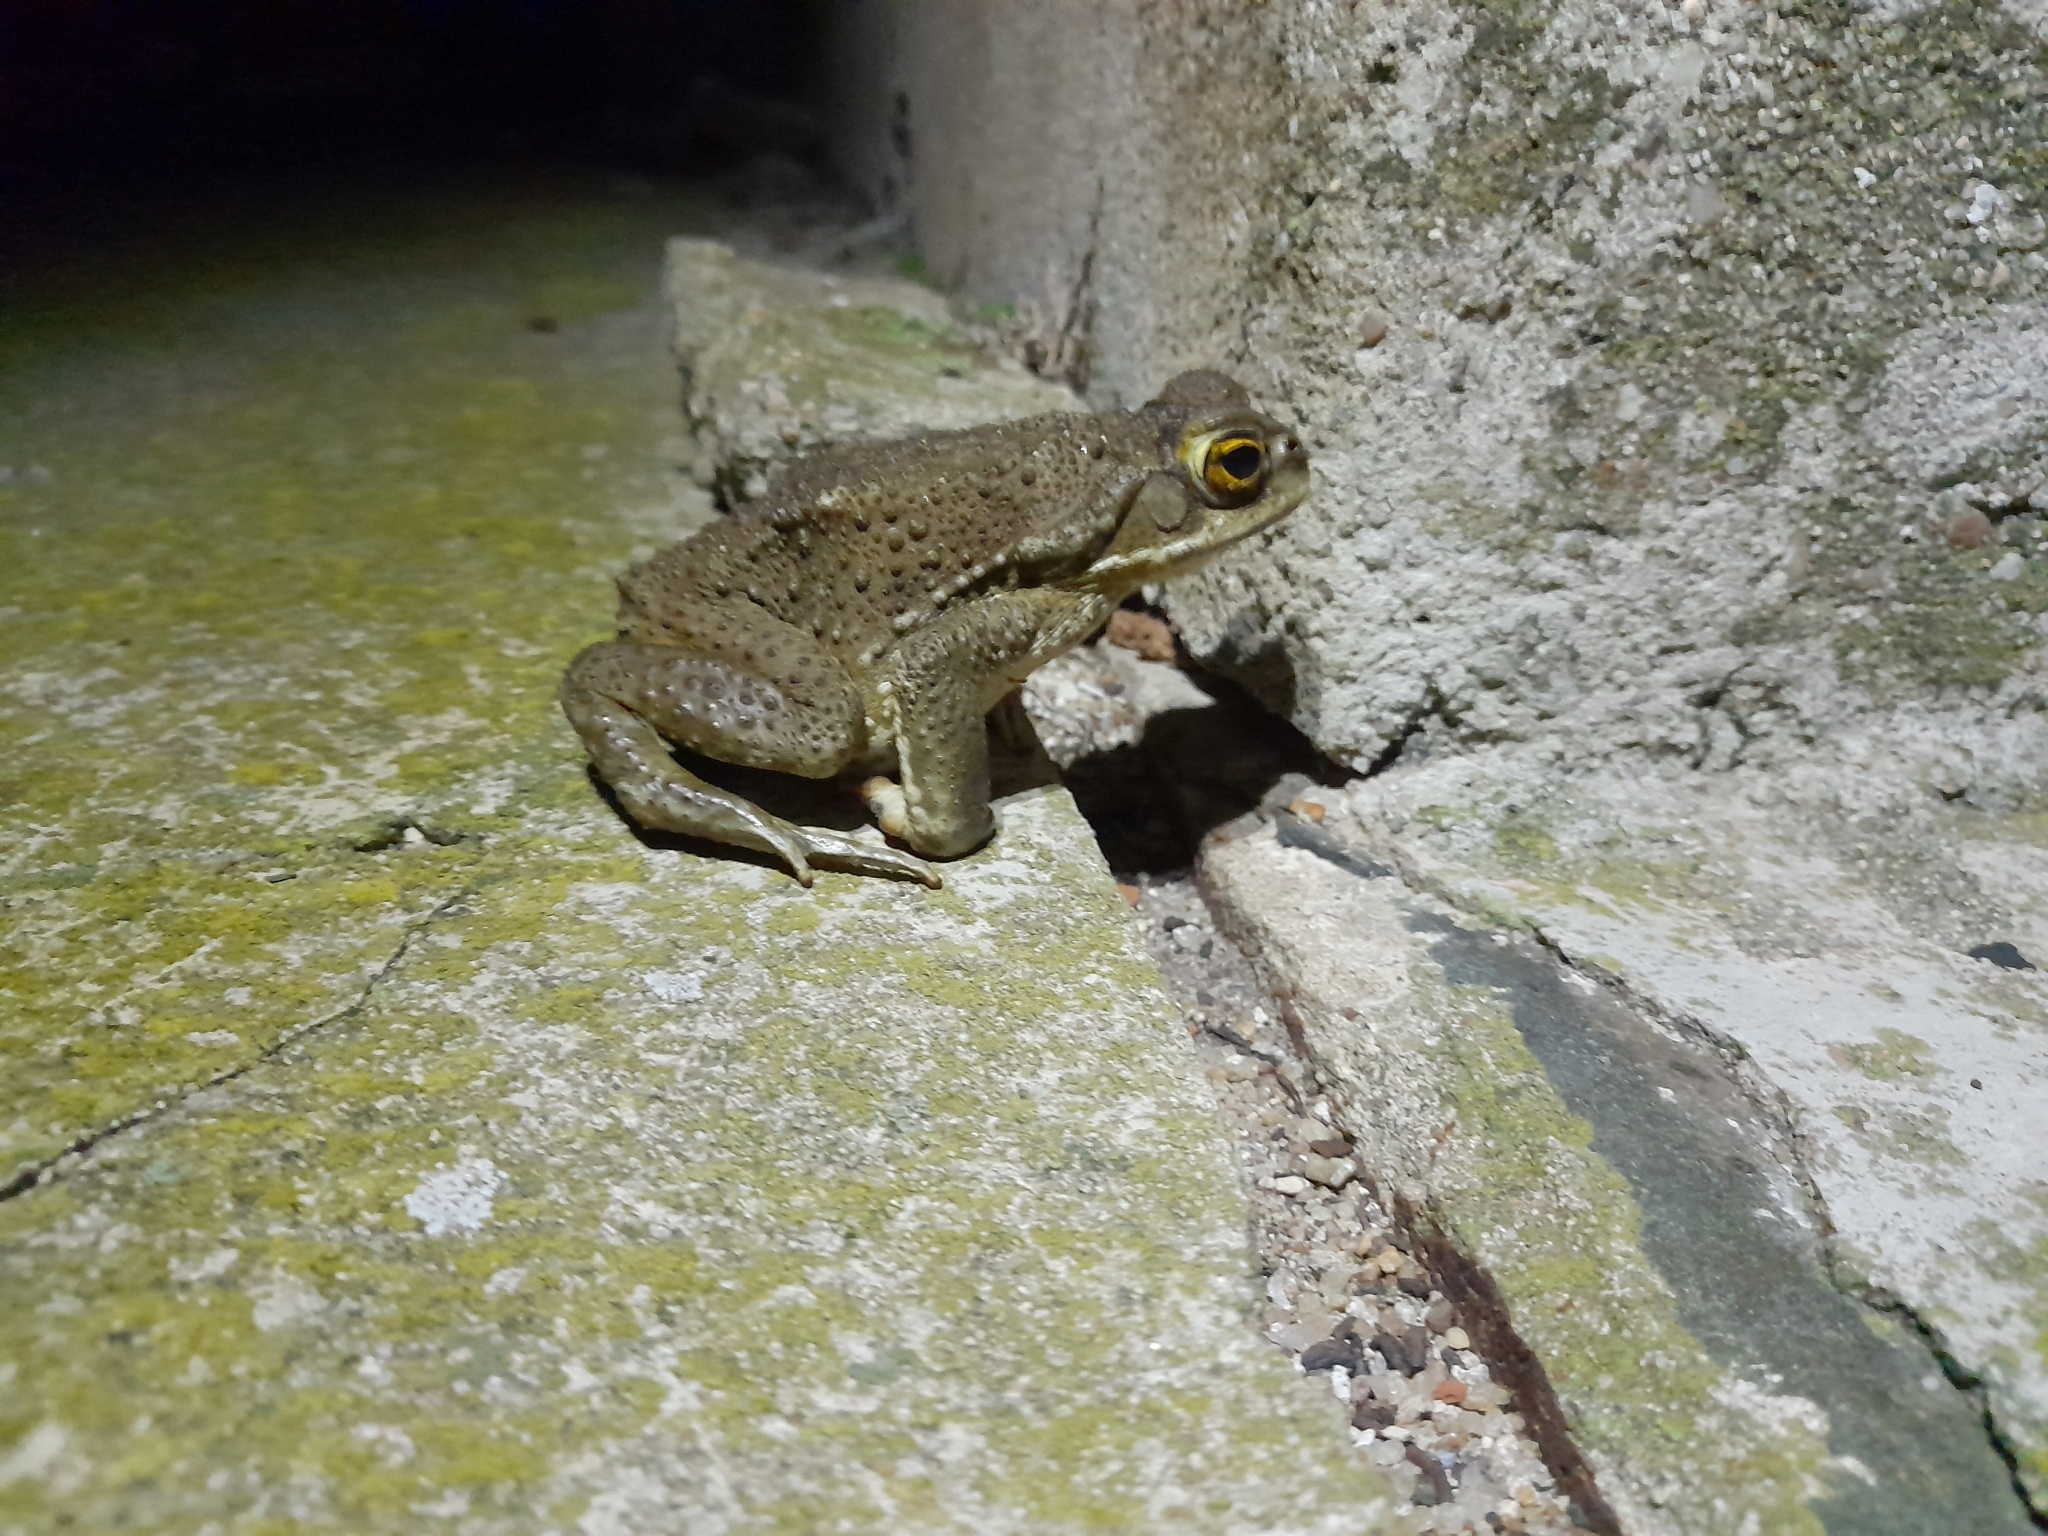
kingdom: Animalia
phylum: Chordata
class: Amphibia
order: Anura
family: Bufonidae
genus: Rhinella
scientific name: Rhinella arenarum
